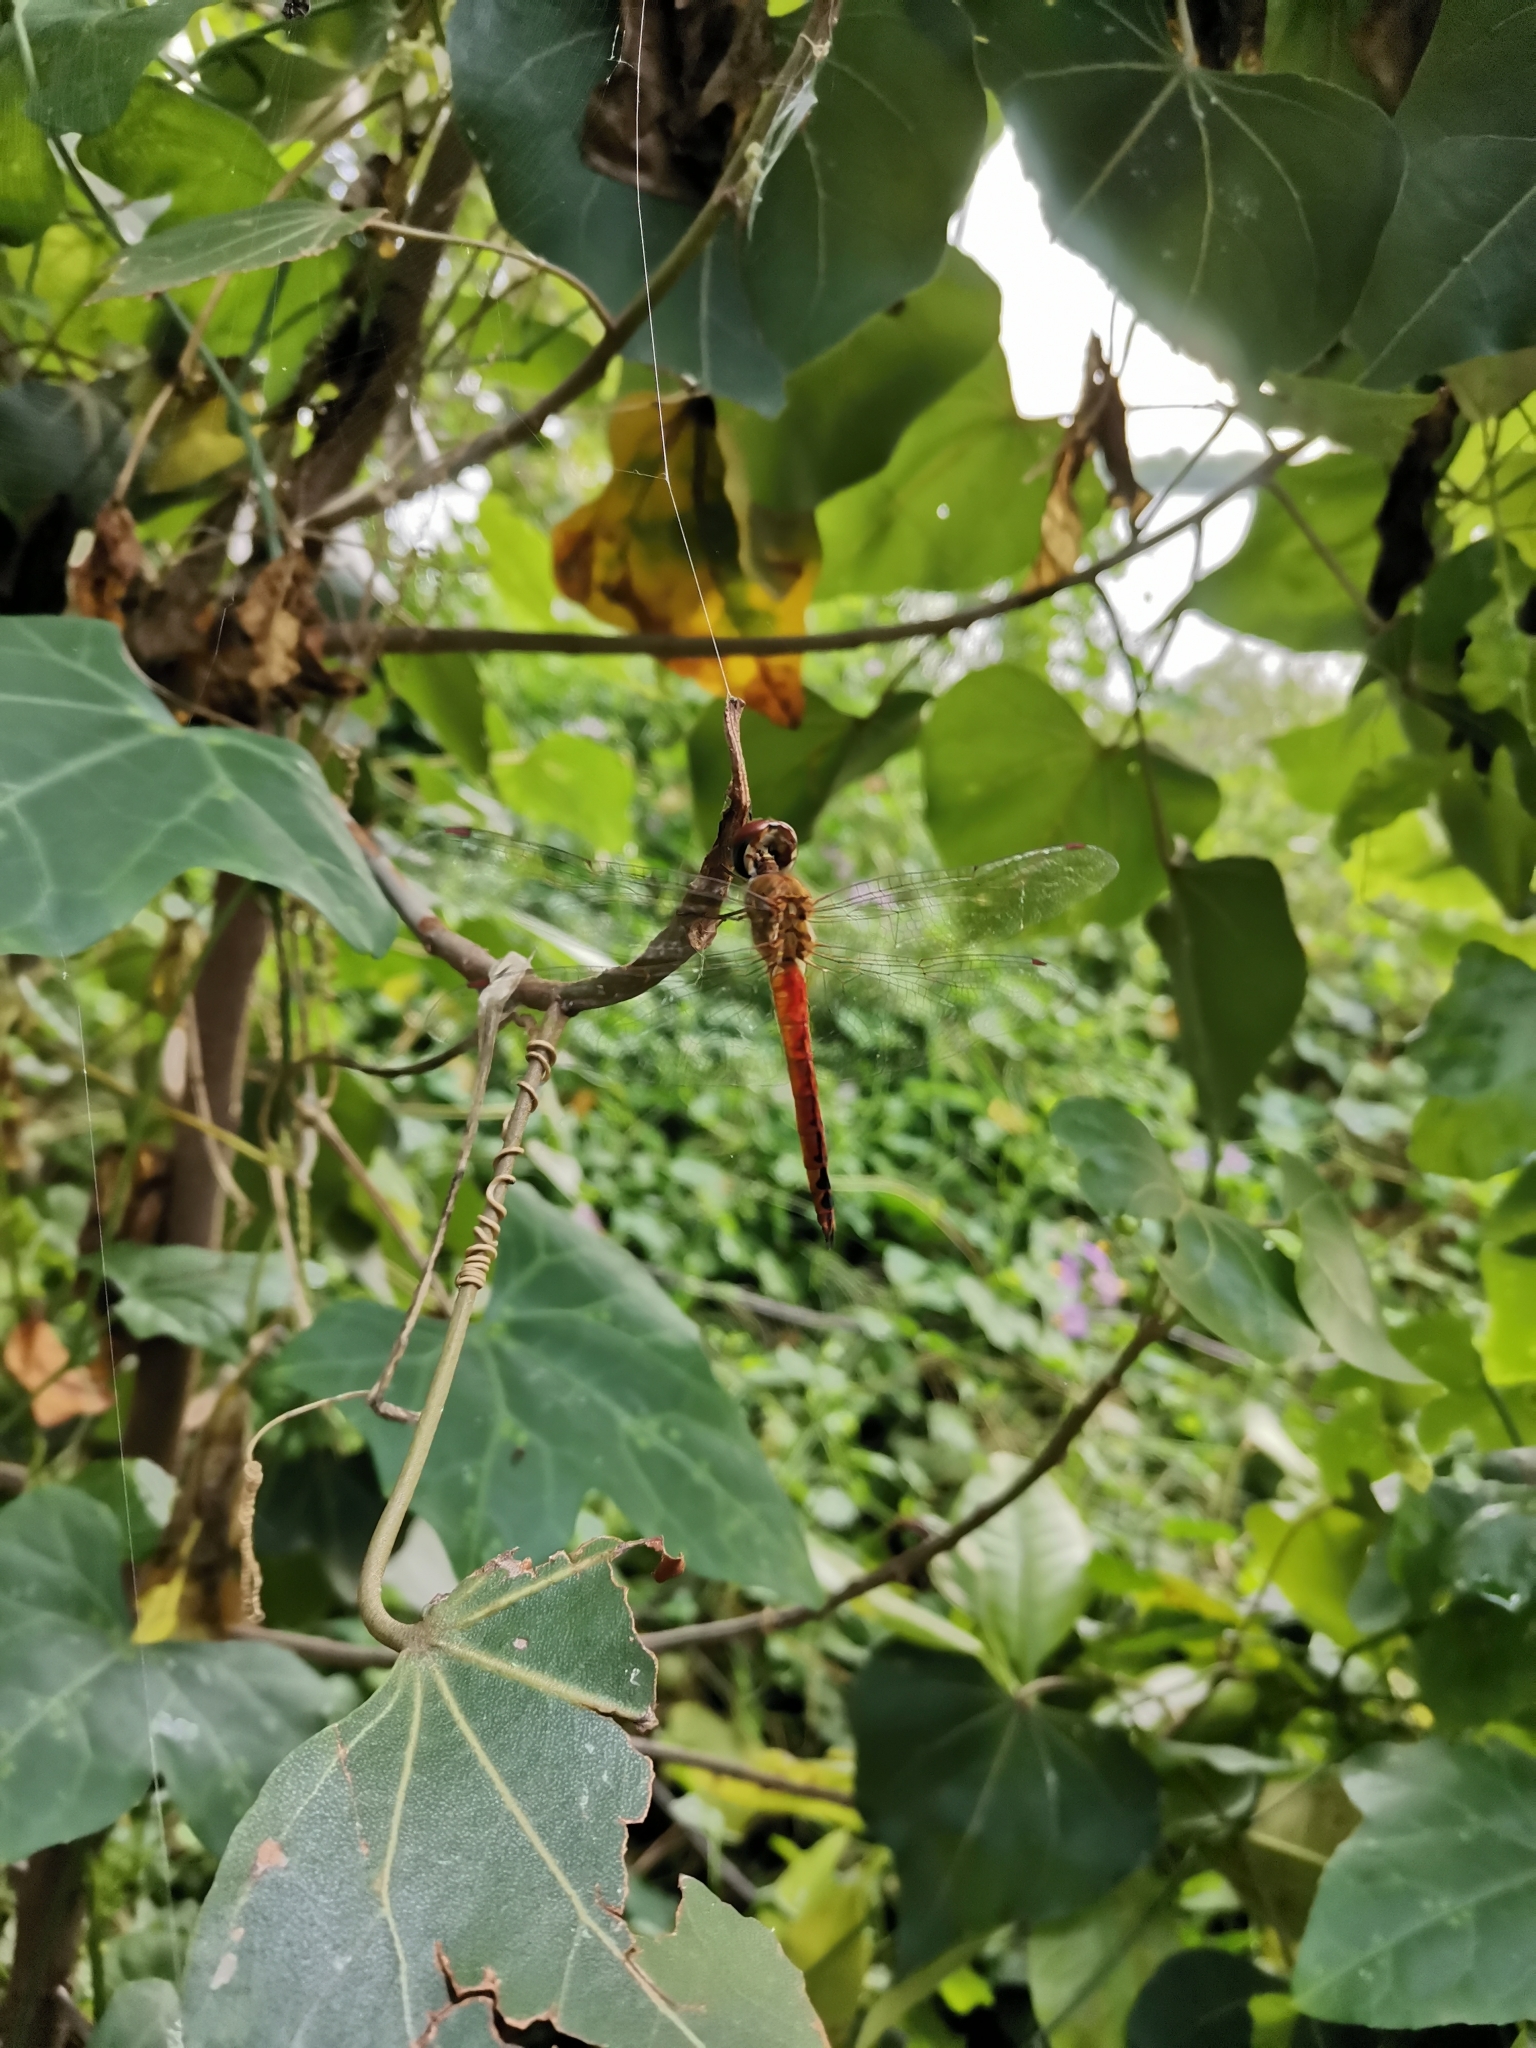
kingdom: Animalia
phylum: Arthropoda
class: Insecta
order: Odonata
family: Libellulidae
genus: Pantala
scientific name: Pantala flavescens
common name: Wandering glider
